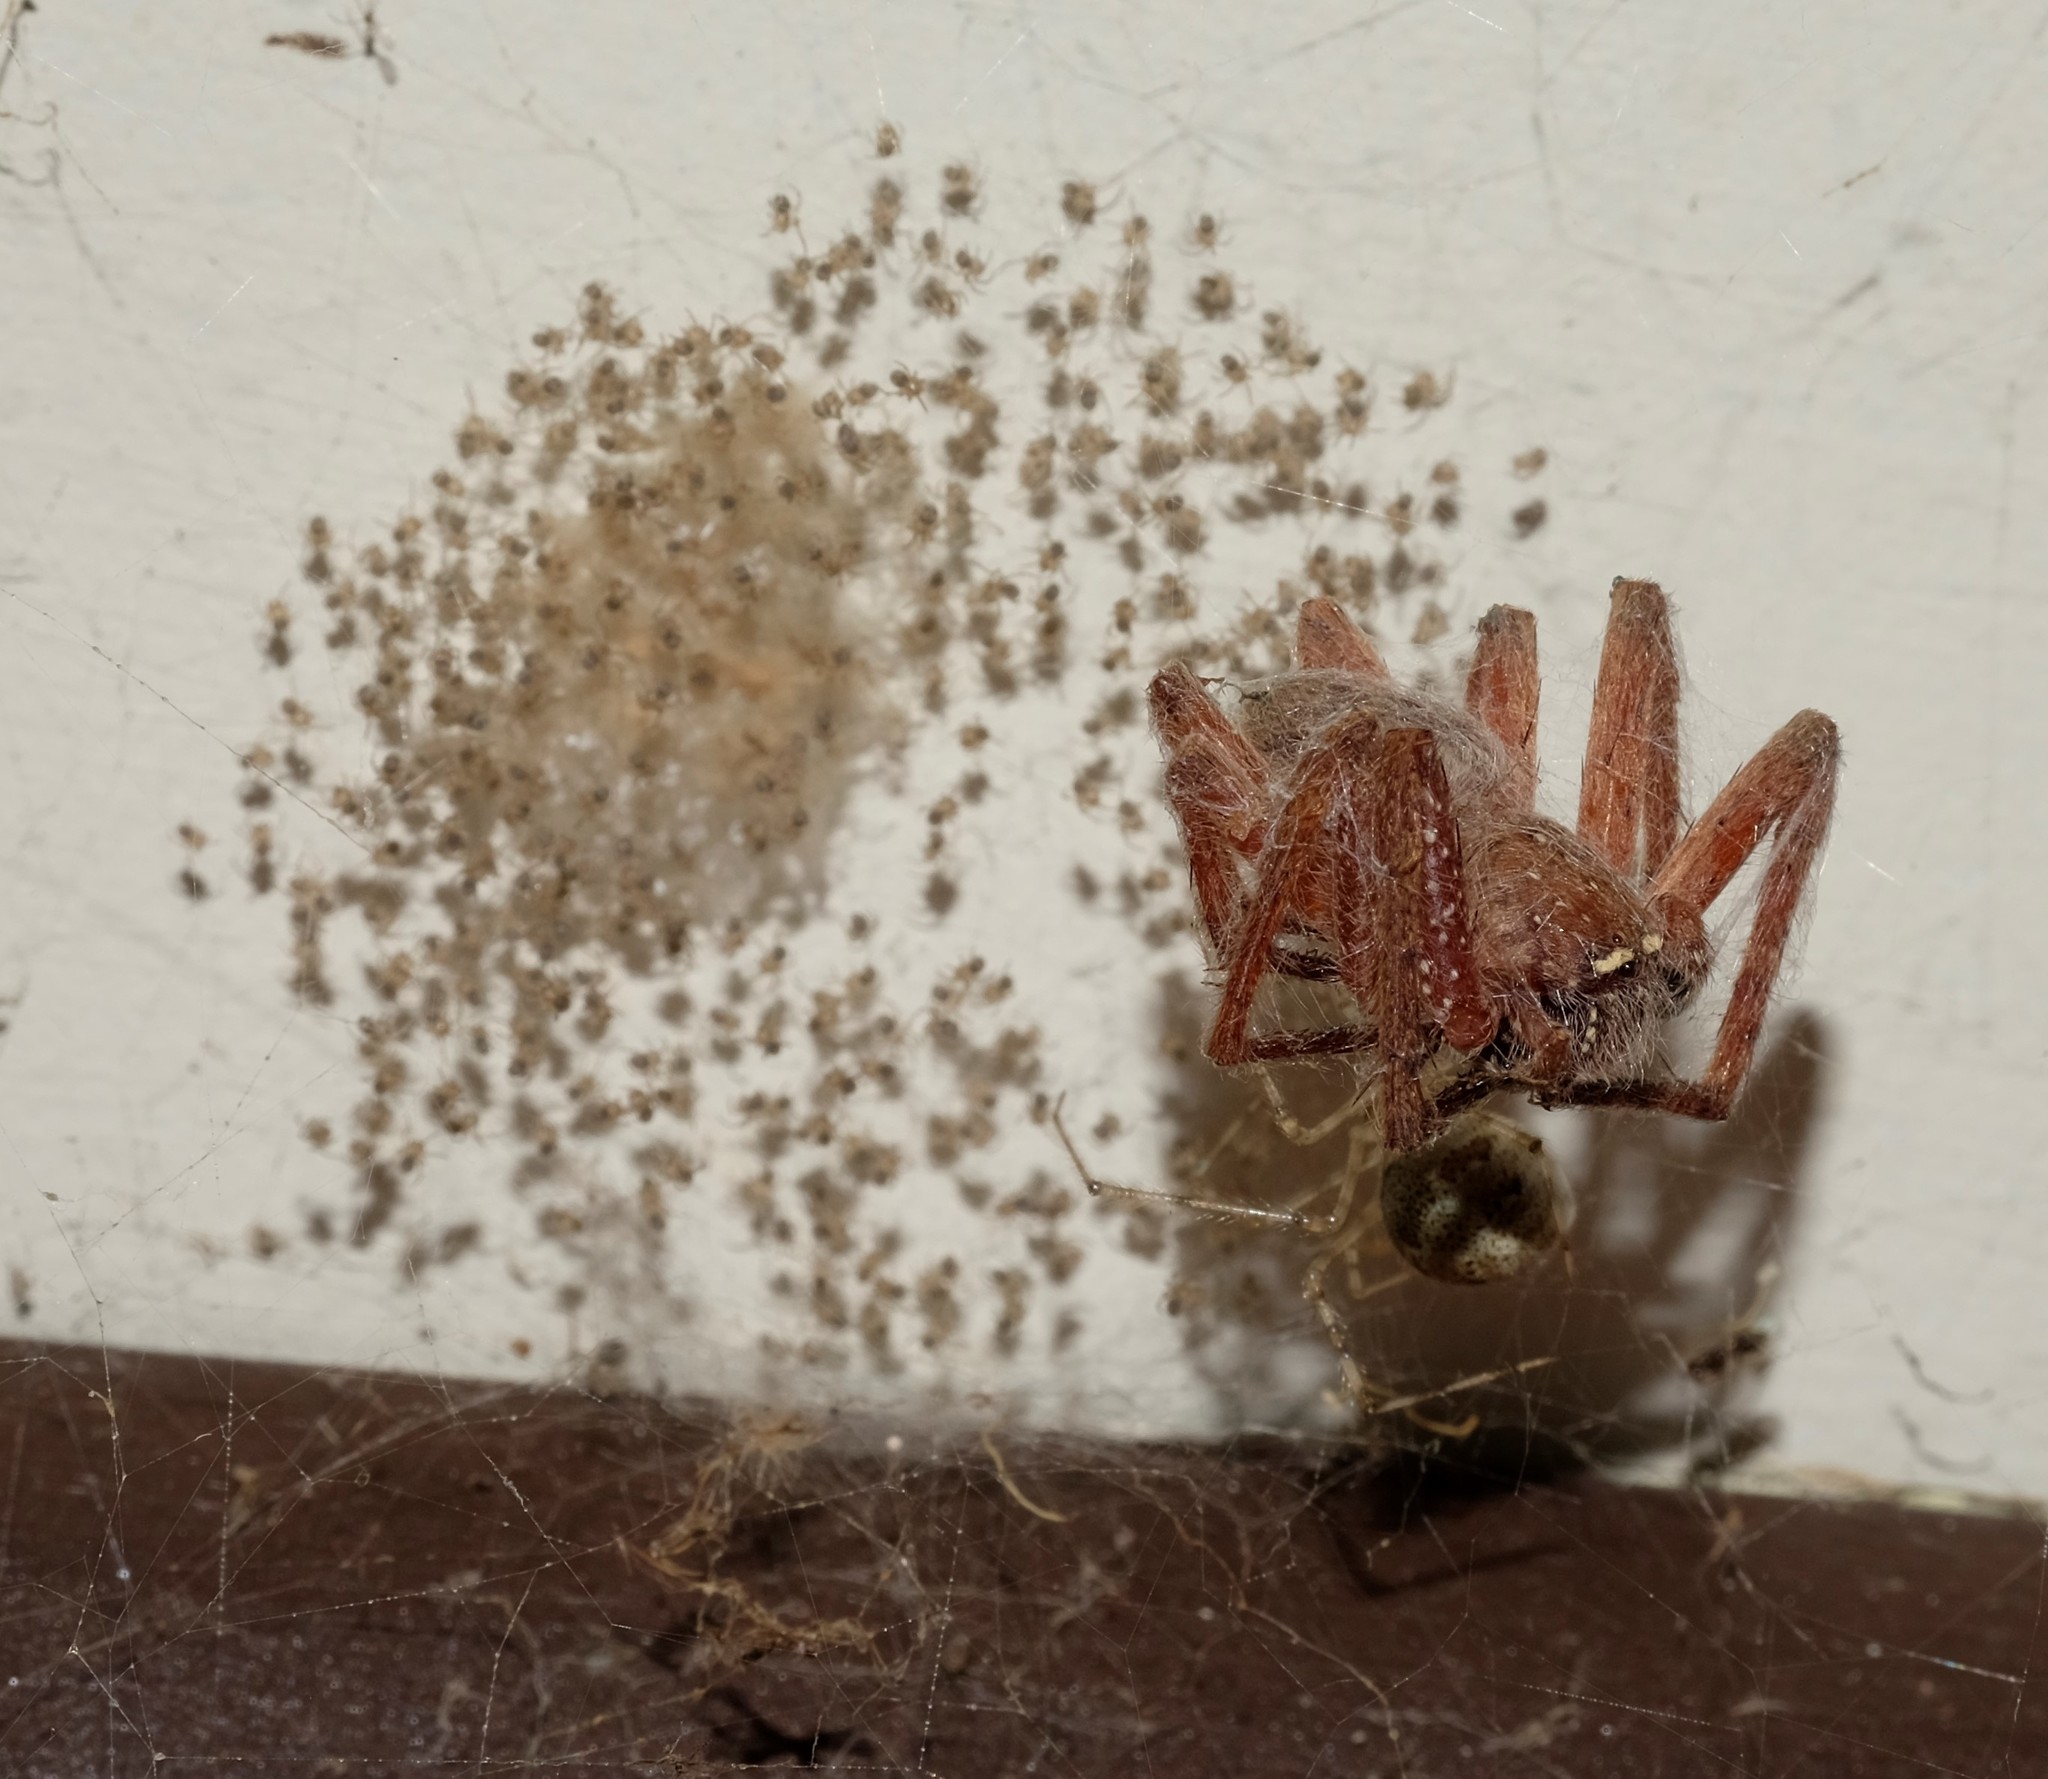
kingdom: Animalia
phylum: Arthropoda
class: Arachnida
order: Araneae
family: Sparassidae
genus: Neosparassus
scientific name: Neosparassus diana
